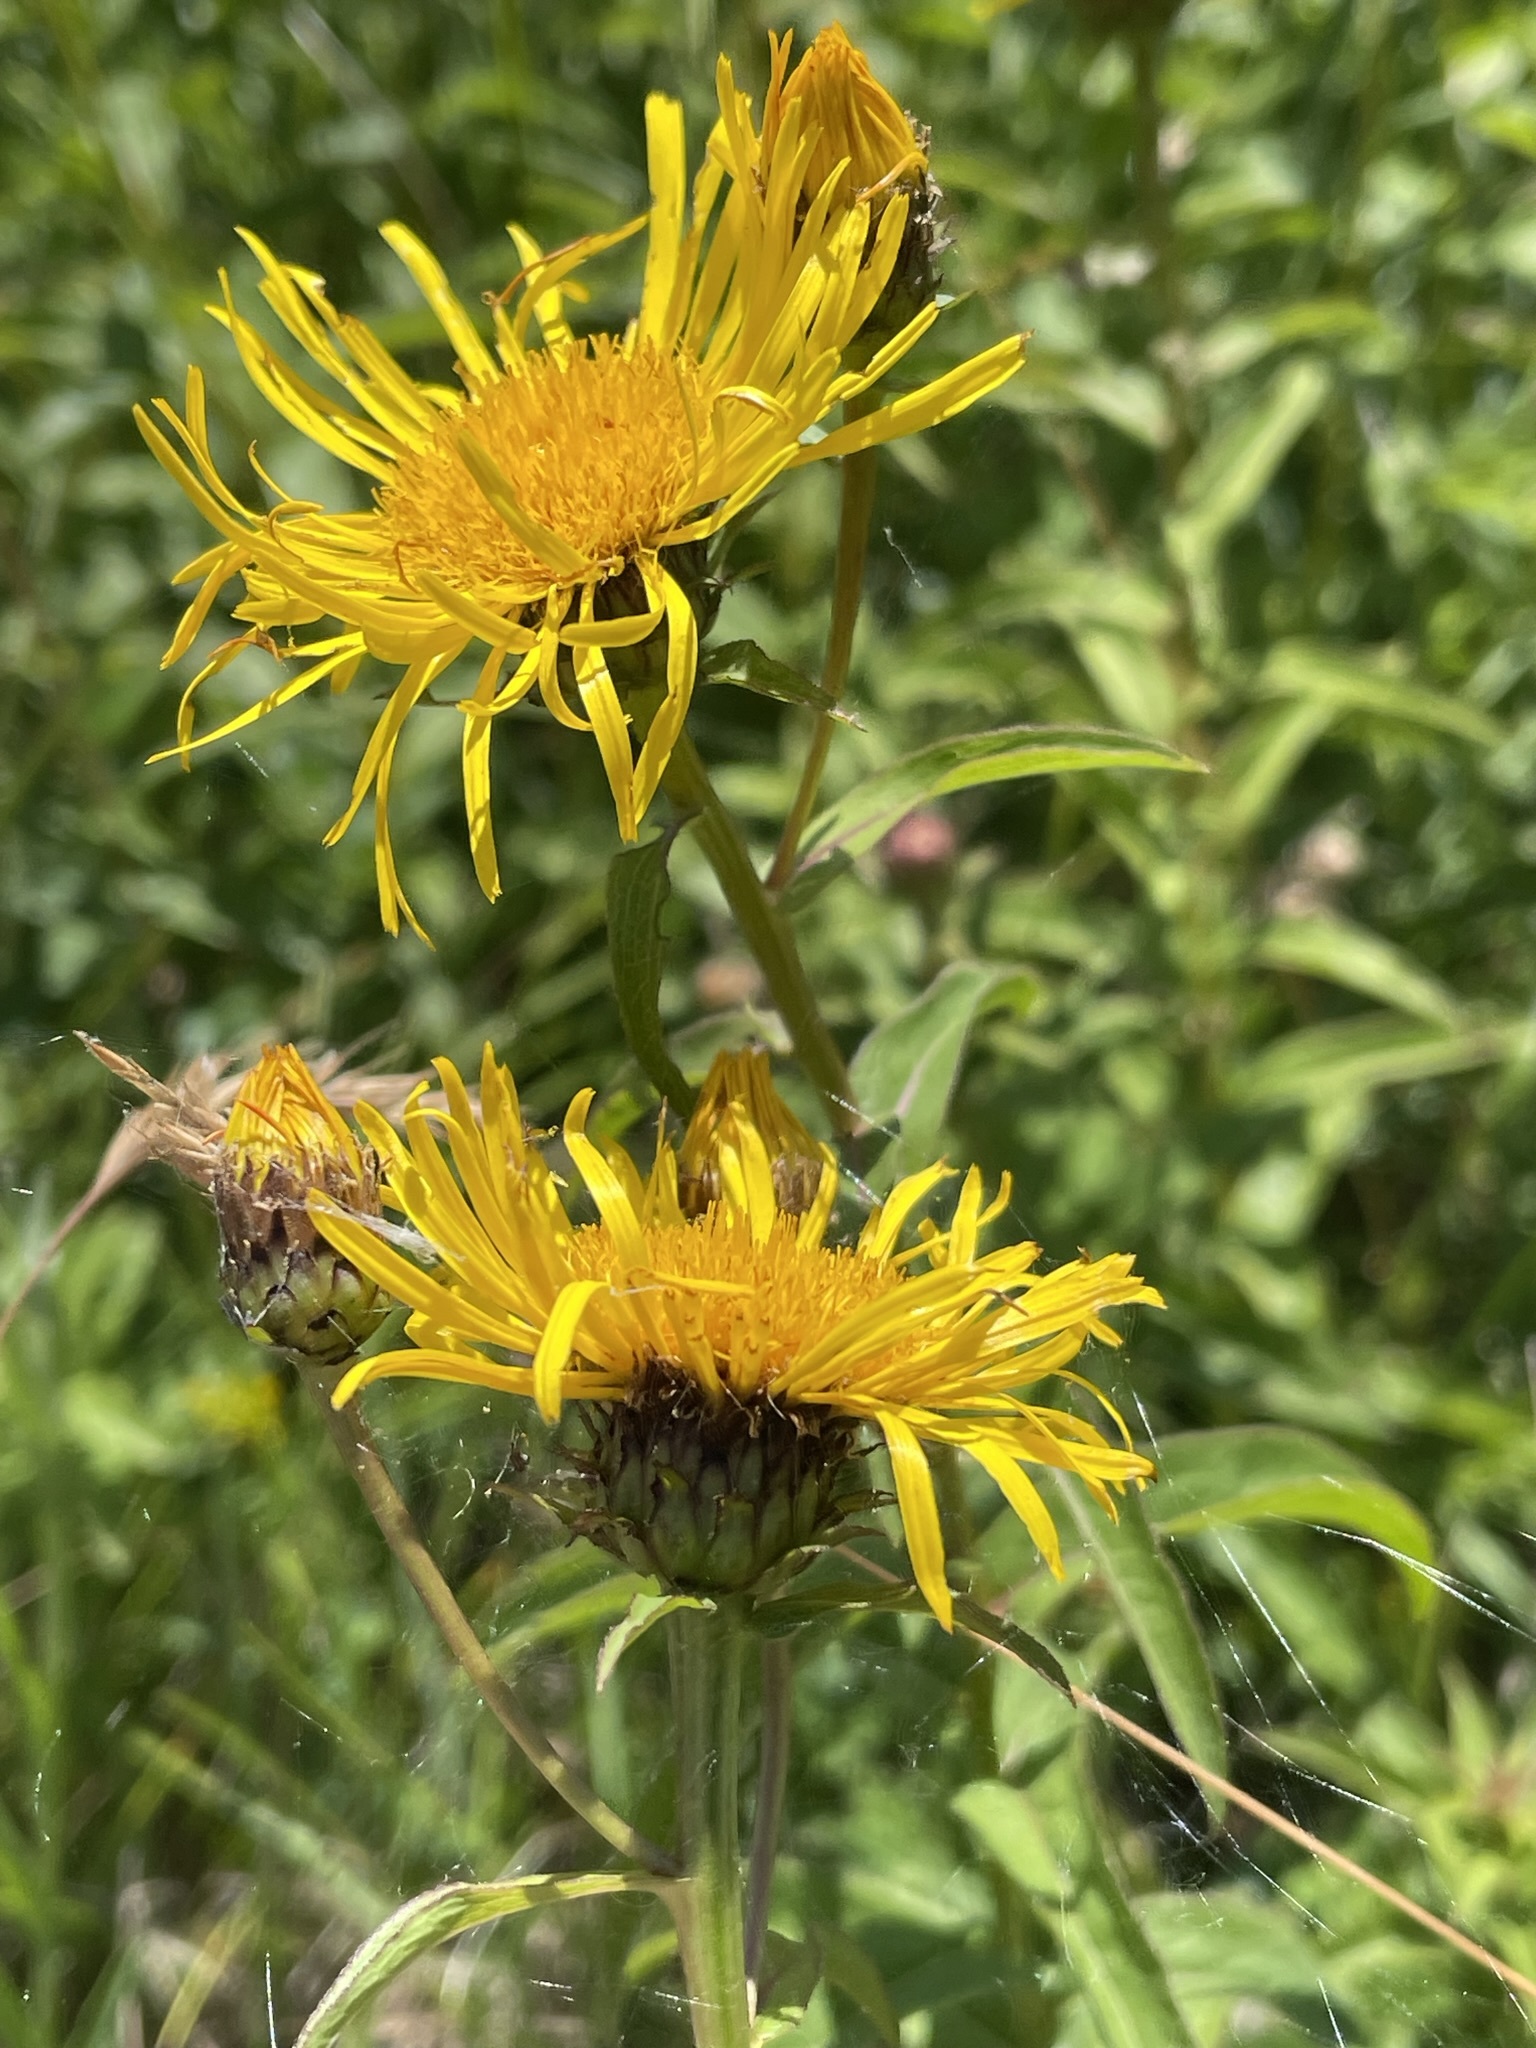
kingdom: Plantae
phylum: Tracheophyta
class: Magnoliopsida
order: Asterales
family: Asteraceae
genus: Pentanema
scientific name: Pentanema salicinum
